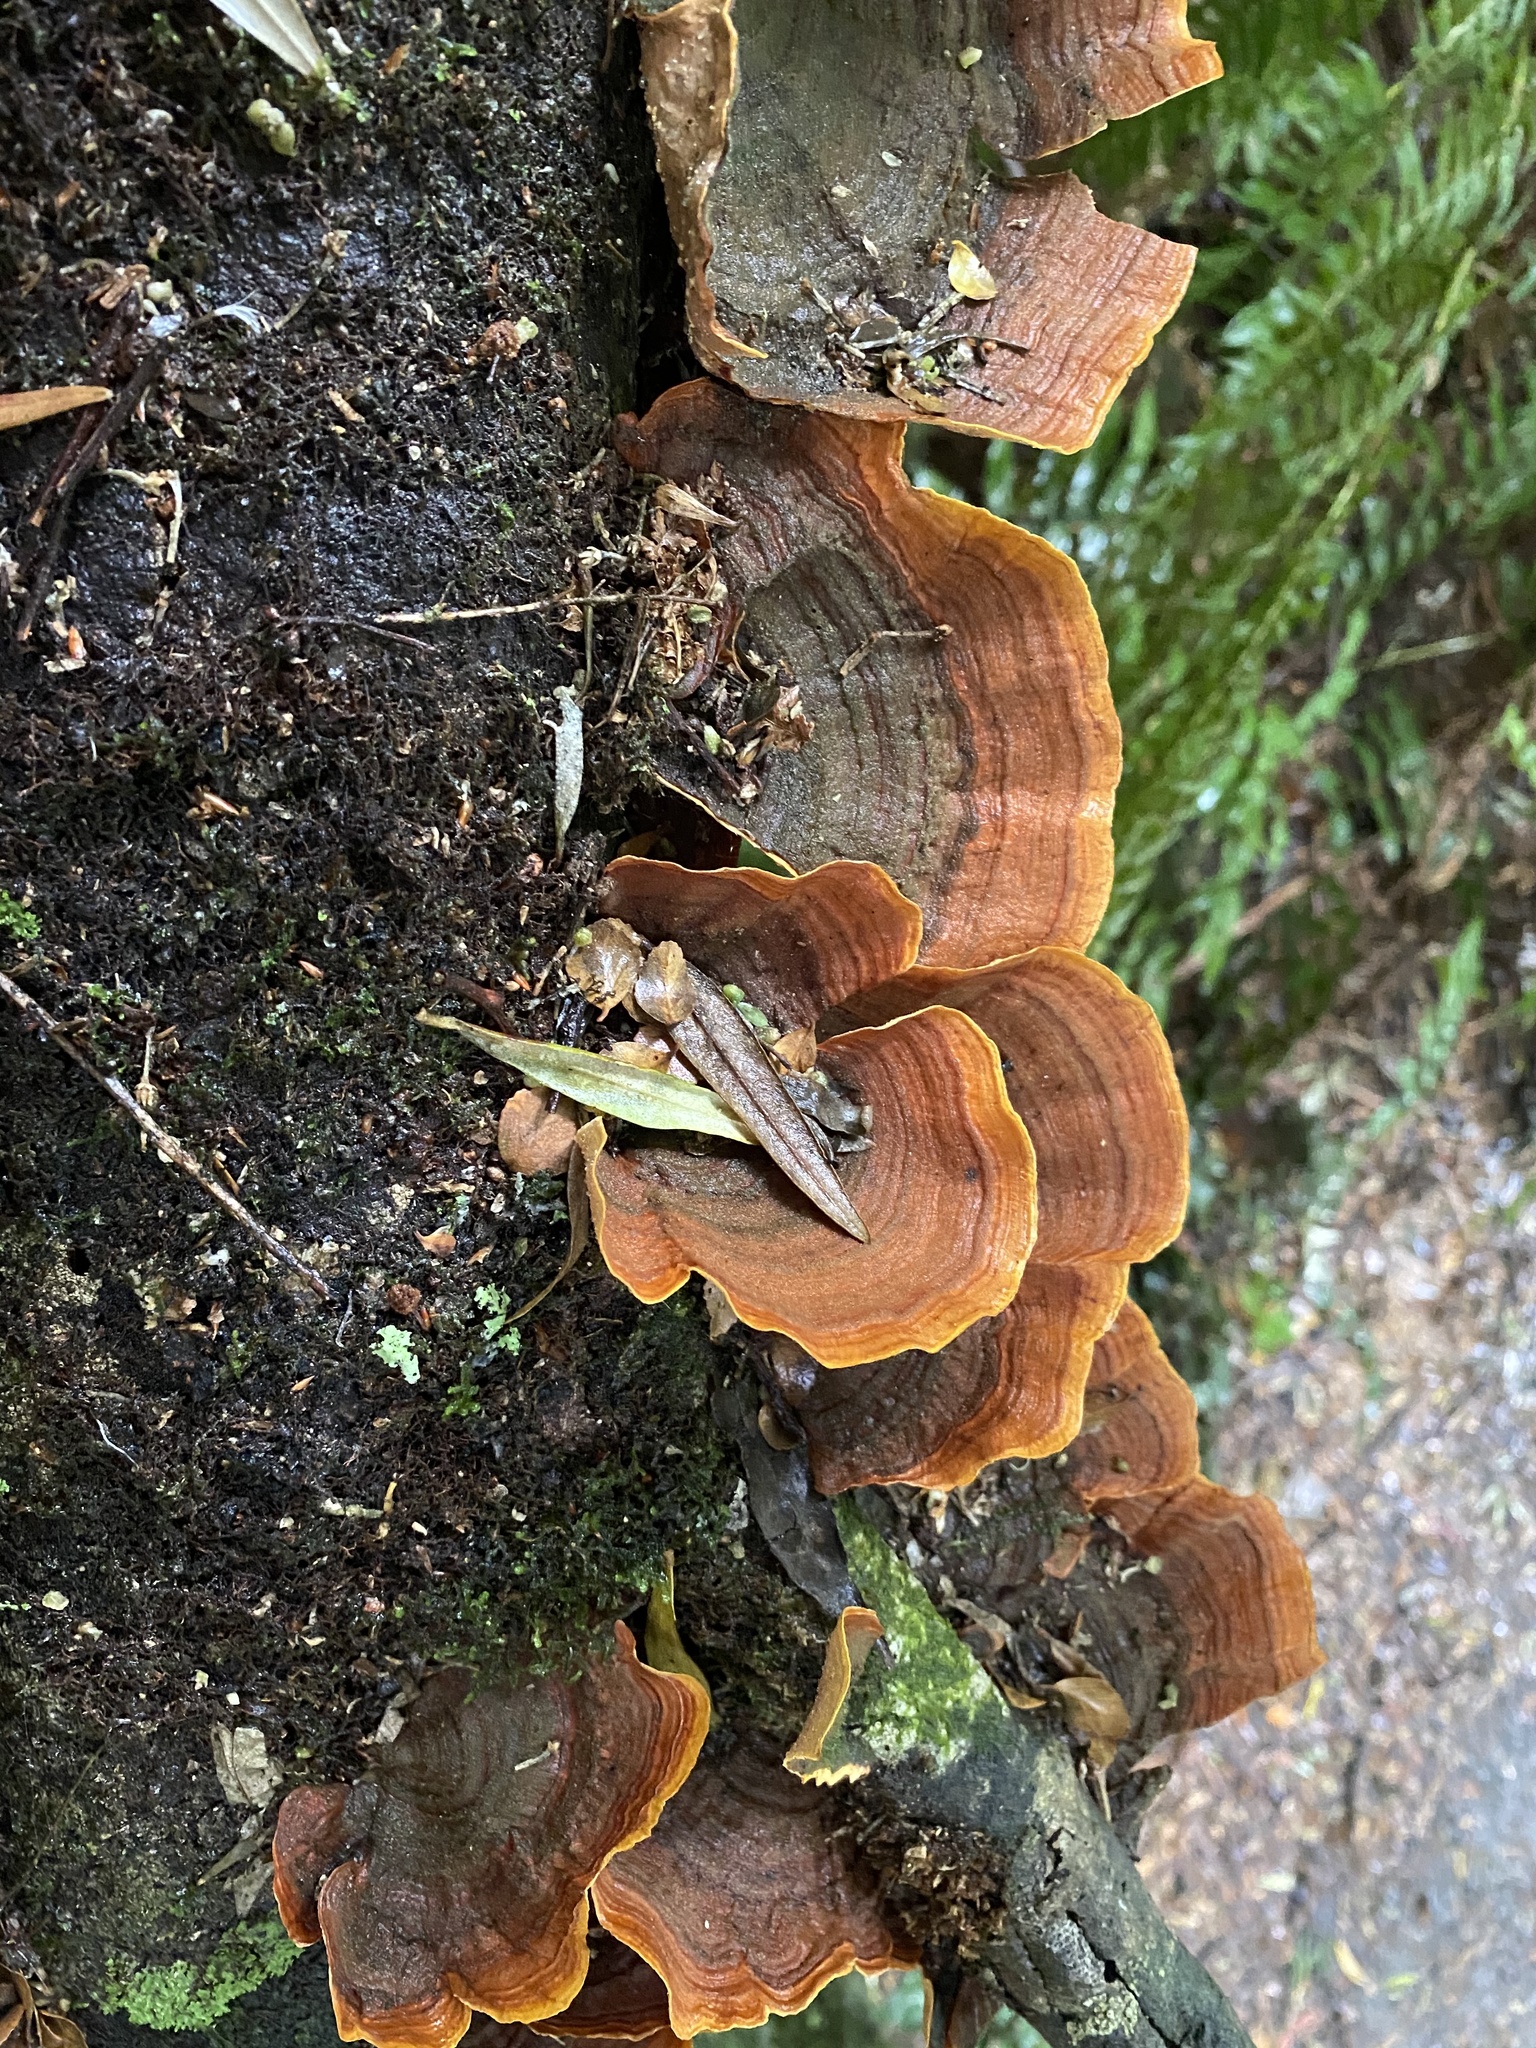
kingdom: Fungi
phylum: Basidiomycota
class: Agaricomycetes
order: Russulales
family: Stereaceae
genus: Stereum
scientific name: Stereum versicolor
